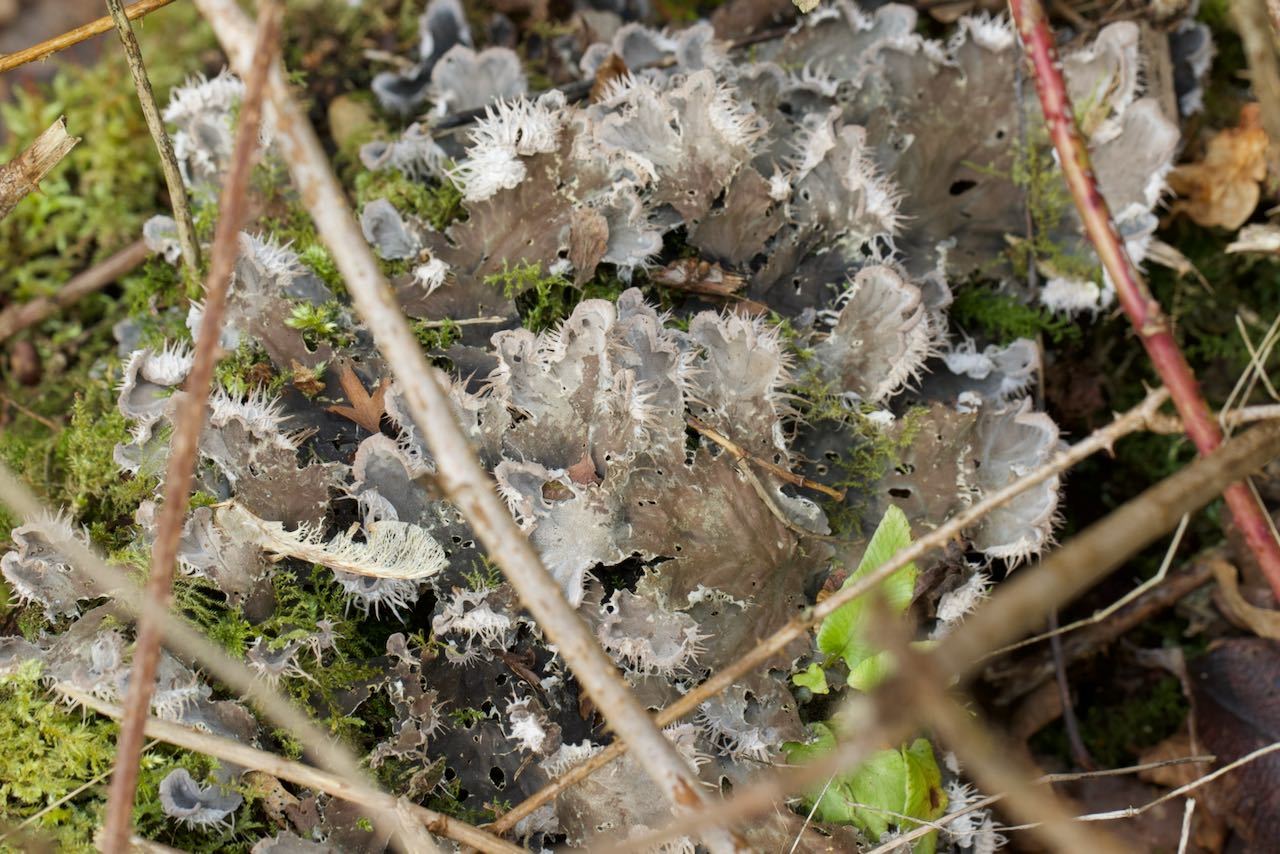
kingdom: Fungi
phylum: Ascomycota
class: Lecanoromycetes
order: Peltigerales
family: Peltigeraceae
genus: Peltigera
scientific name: Peltigera membranacea
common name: Membranous pelt lichen
